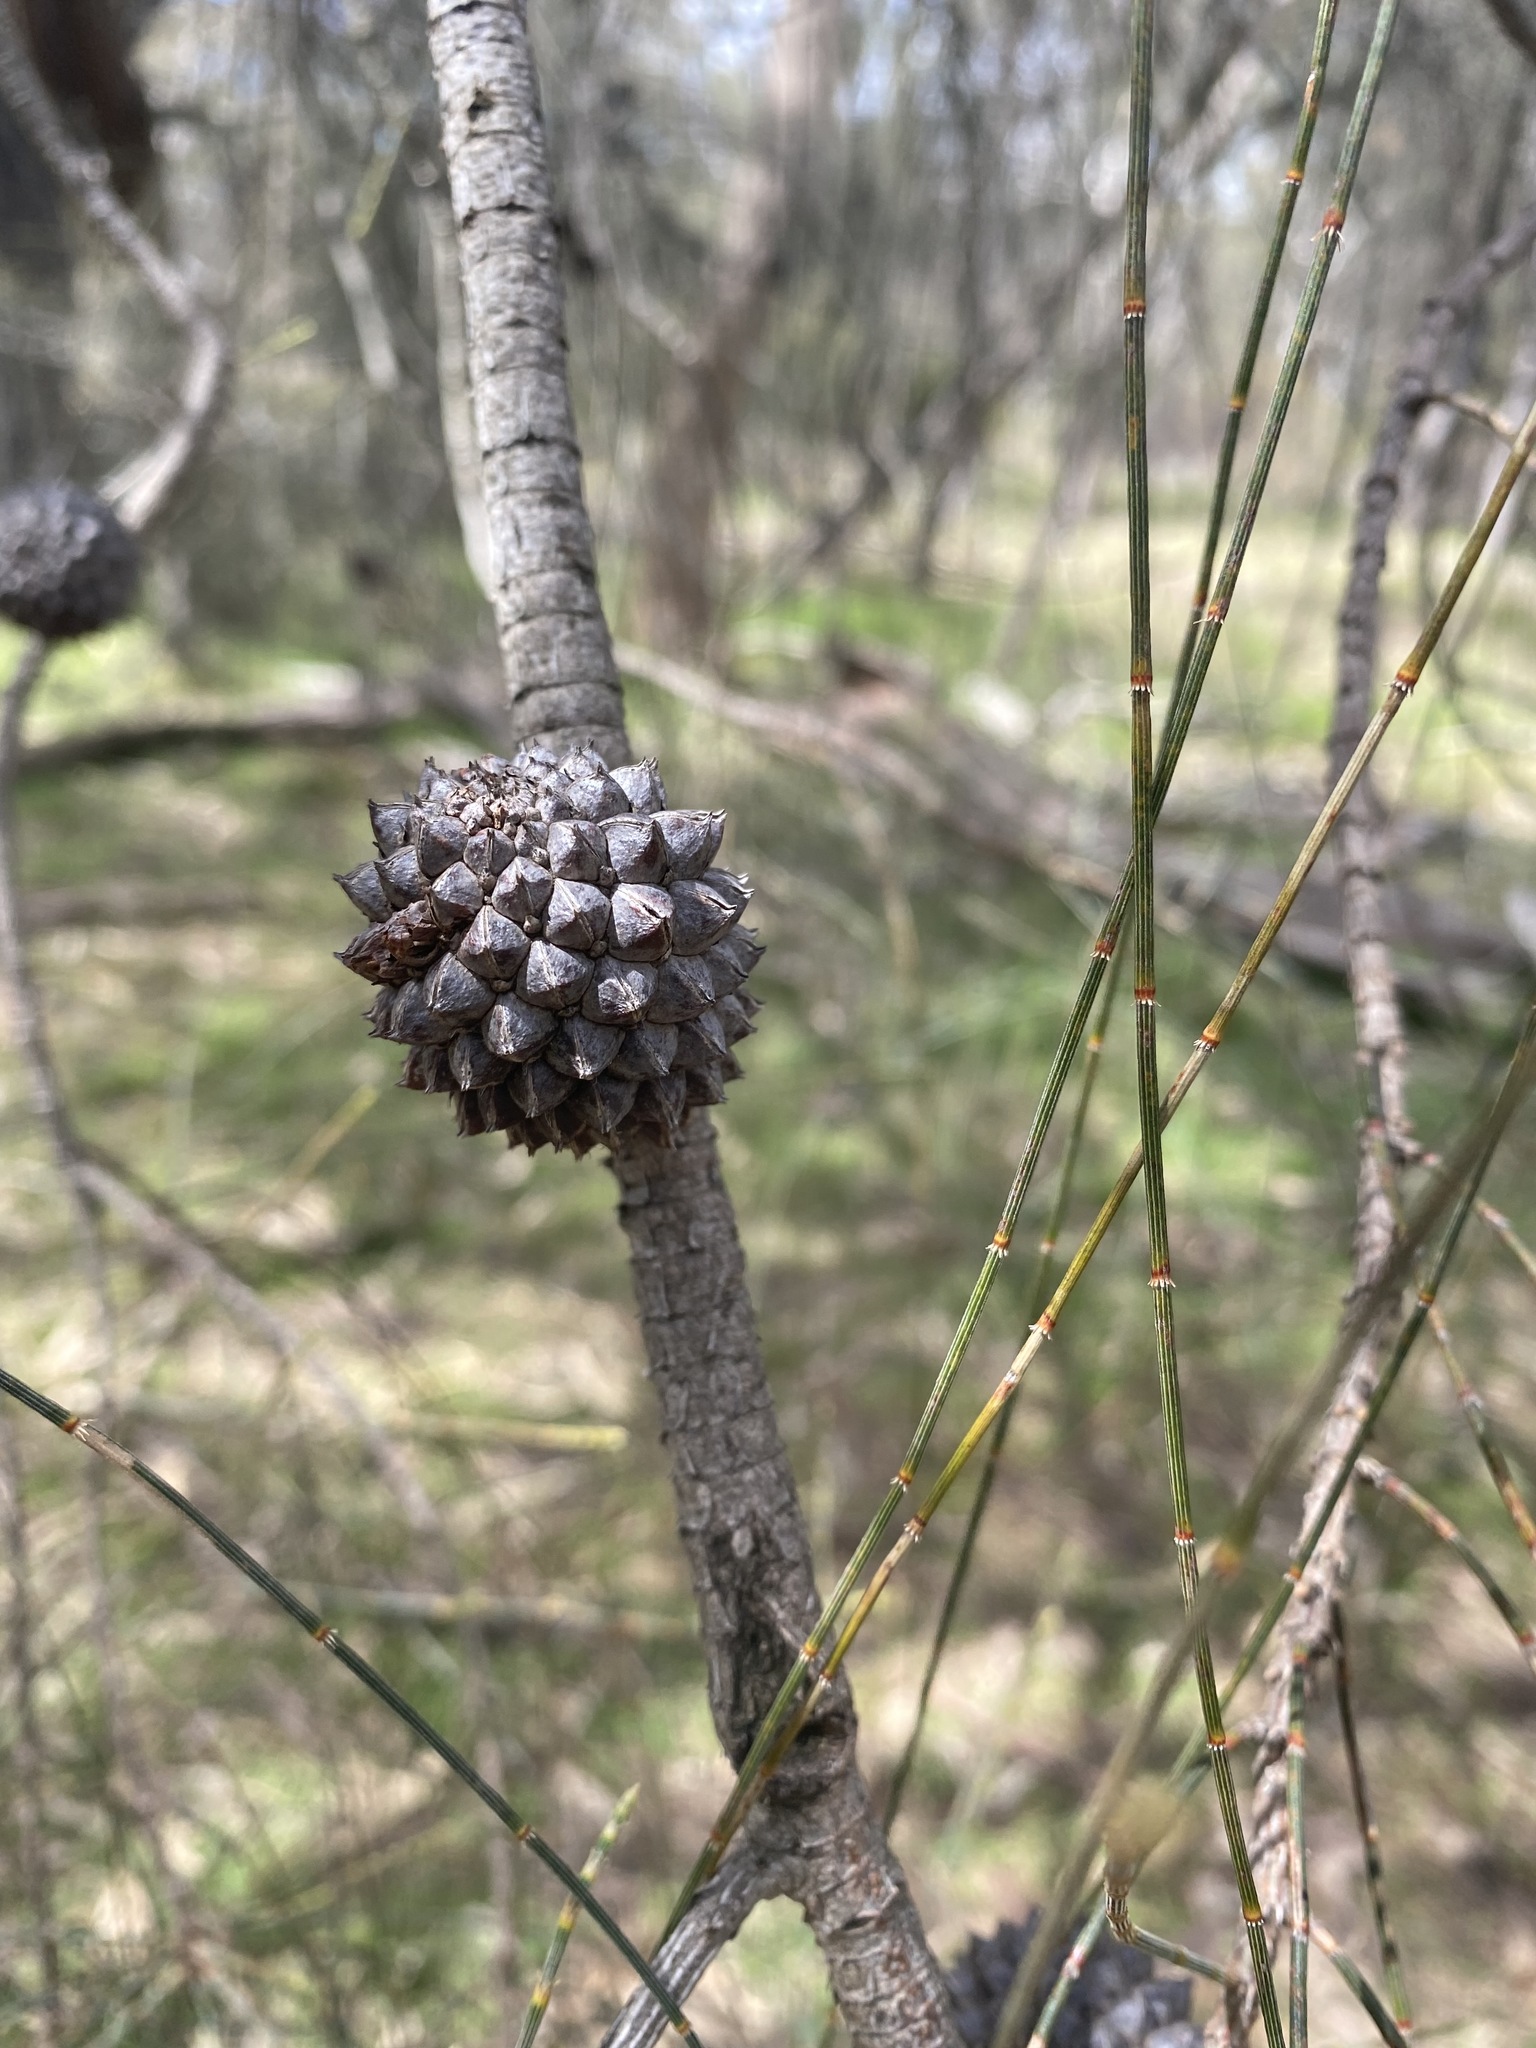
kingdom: Plantae
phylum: Tracheophyta
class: Magnoliopsida
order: Fagales
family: Casuarinaceae
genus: Allocasuarina
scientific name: Allocasuarina verticillata
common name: Drooping she-oak
